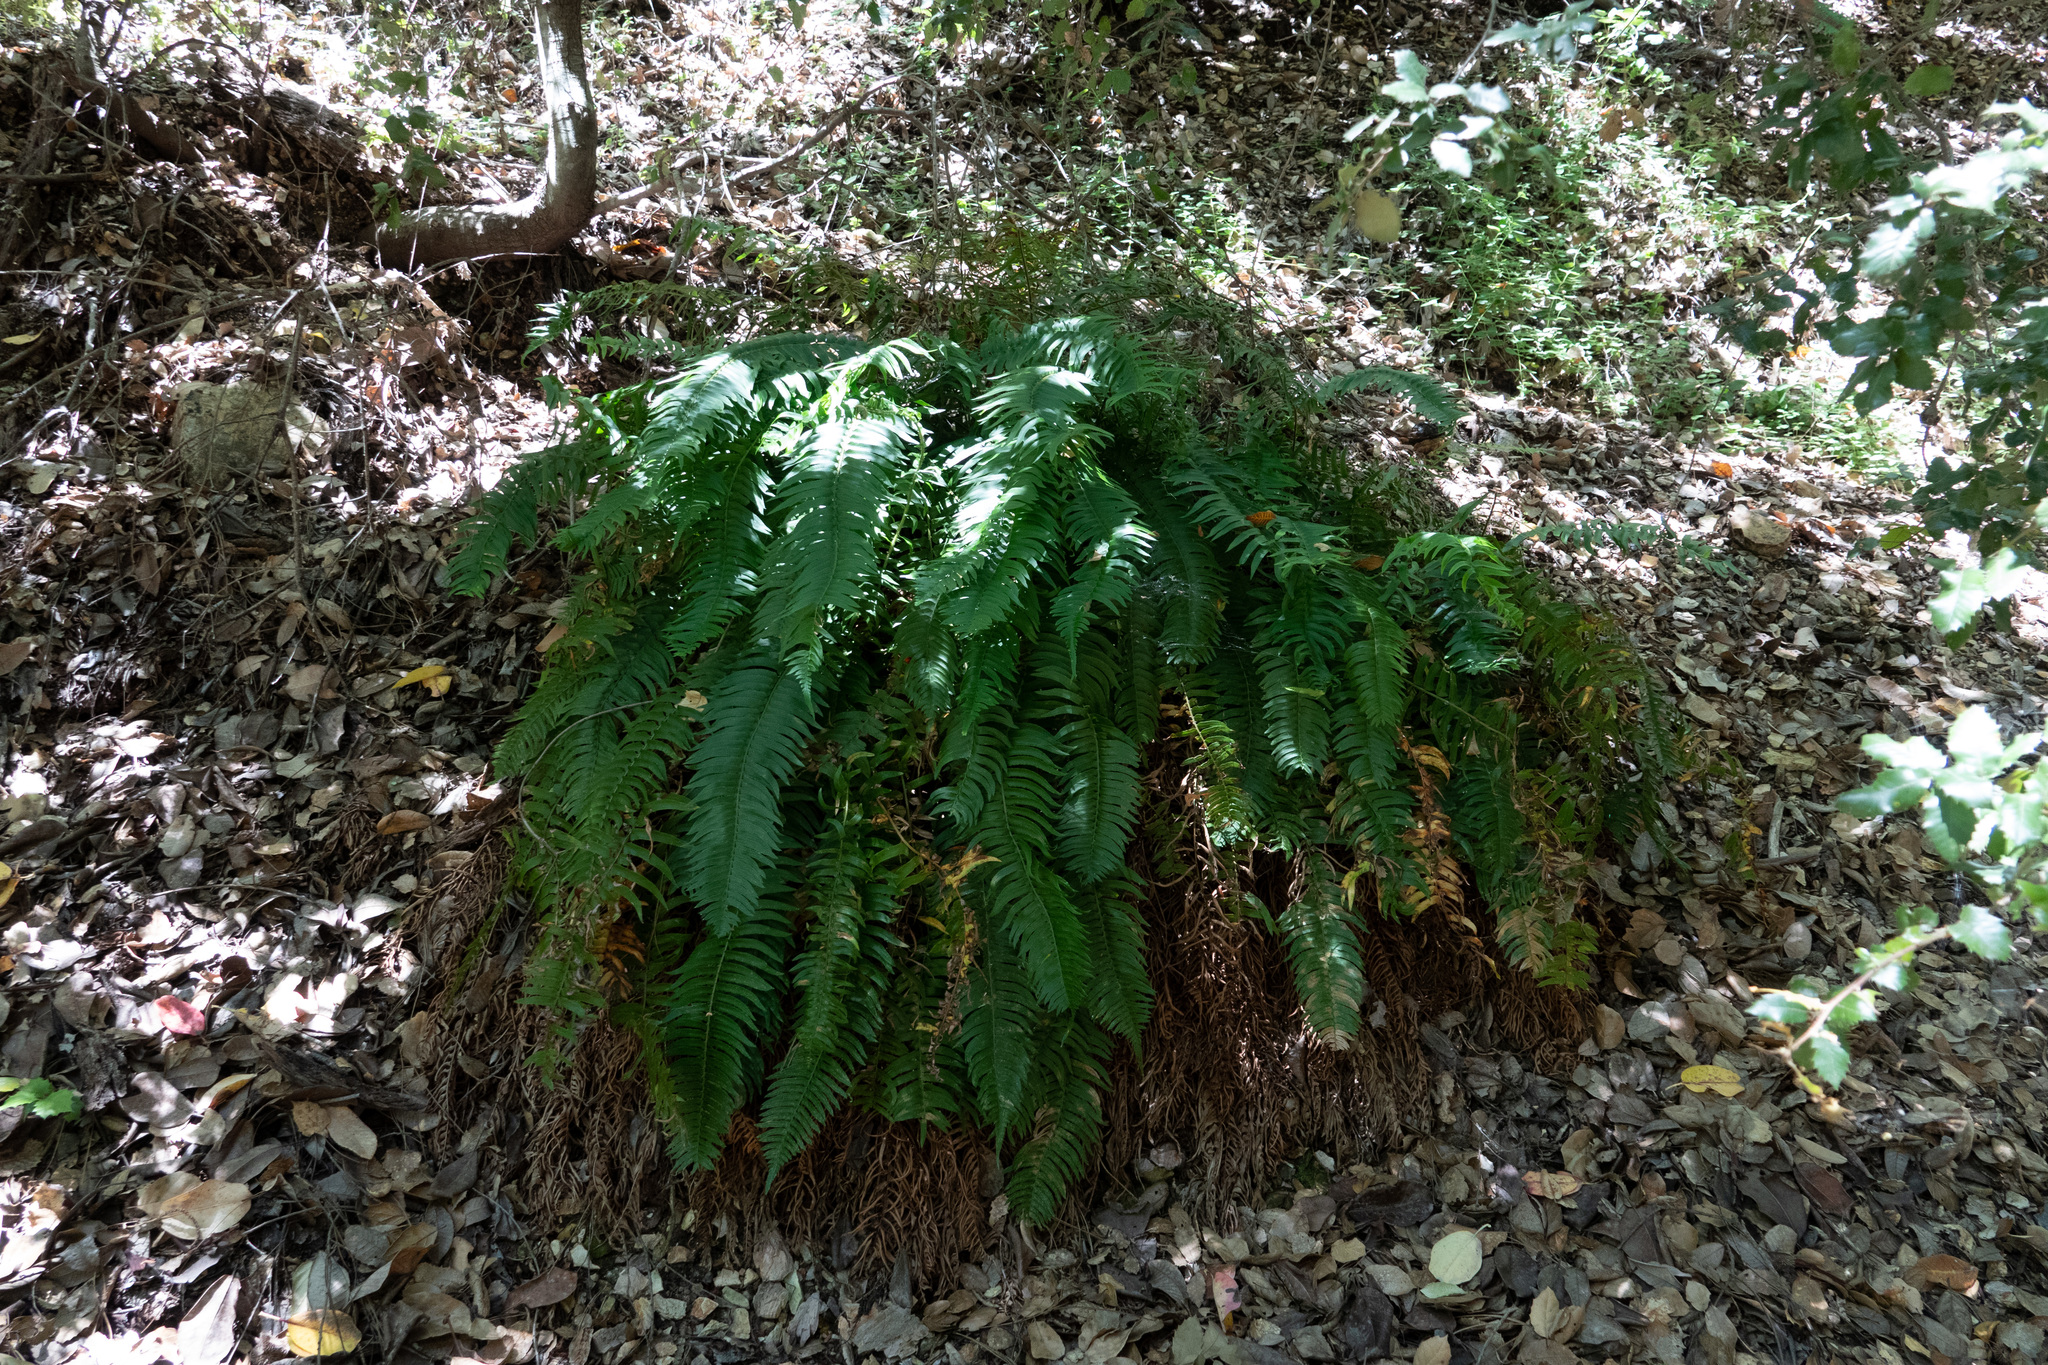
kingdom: Plantae
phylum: Tracheophyta
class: Polypodiopsida
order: Polypodiales
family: Dryopteridaceae
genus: Polystichum
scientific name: Polystichum munitum
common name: Western sword-fern
